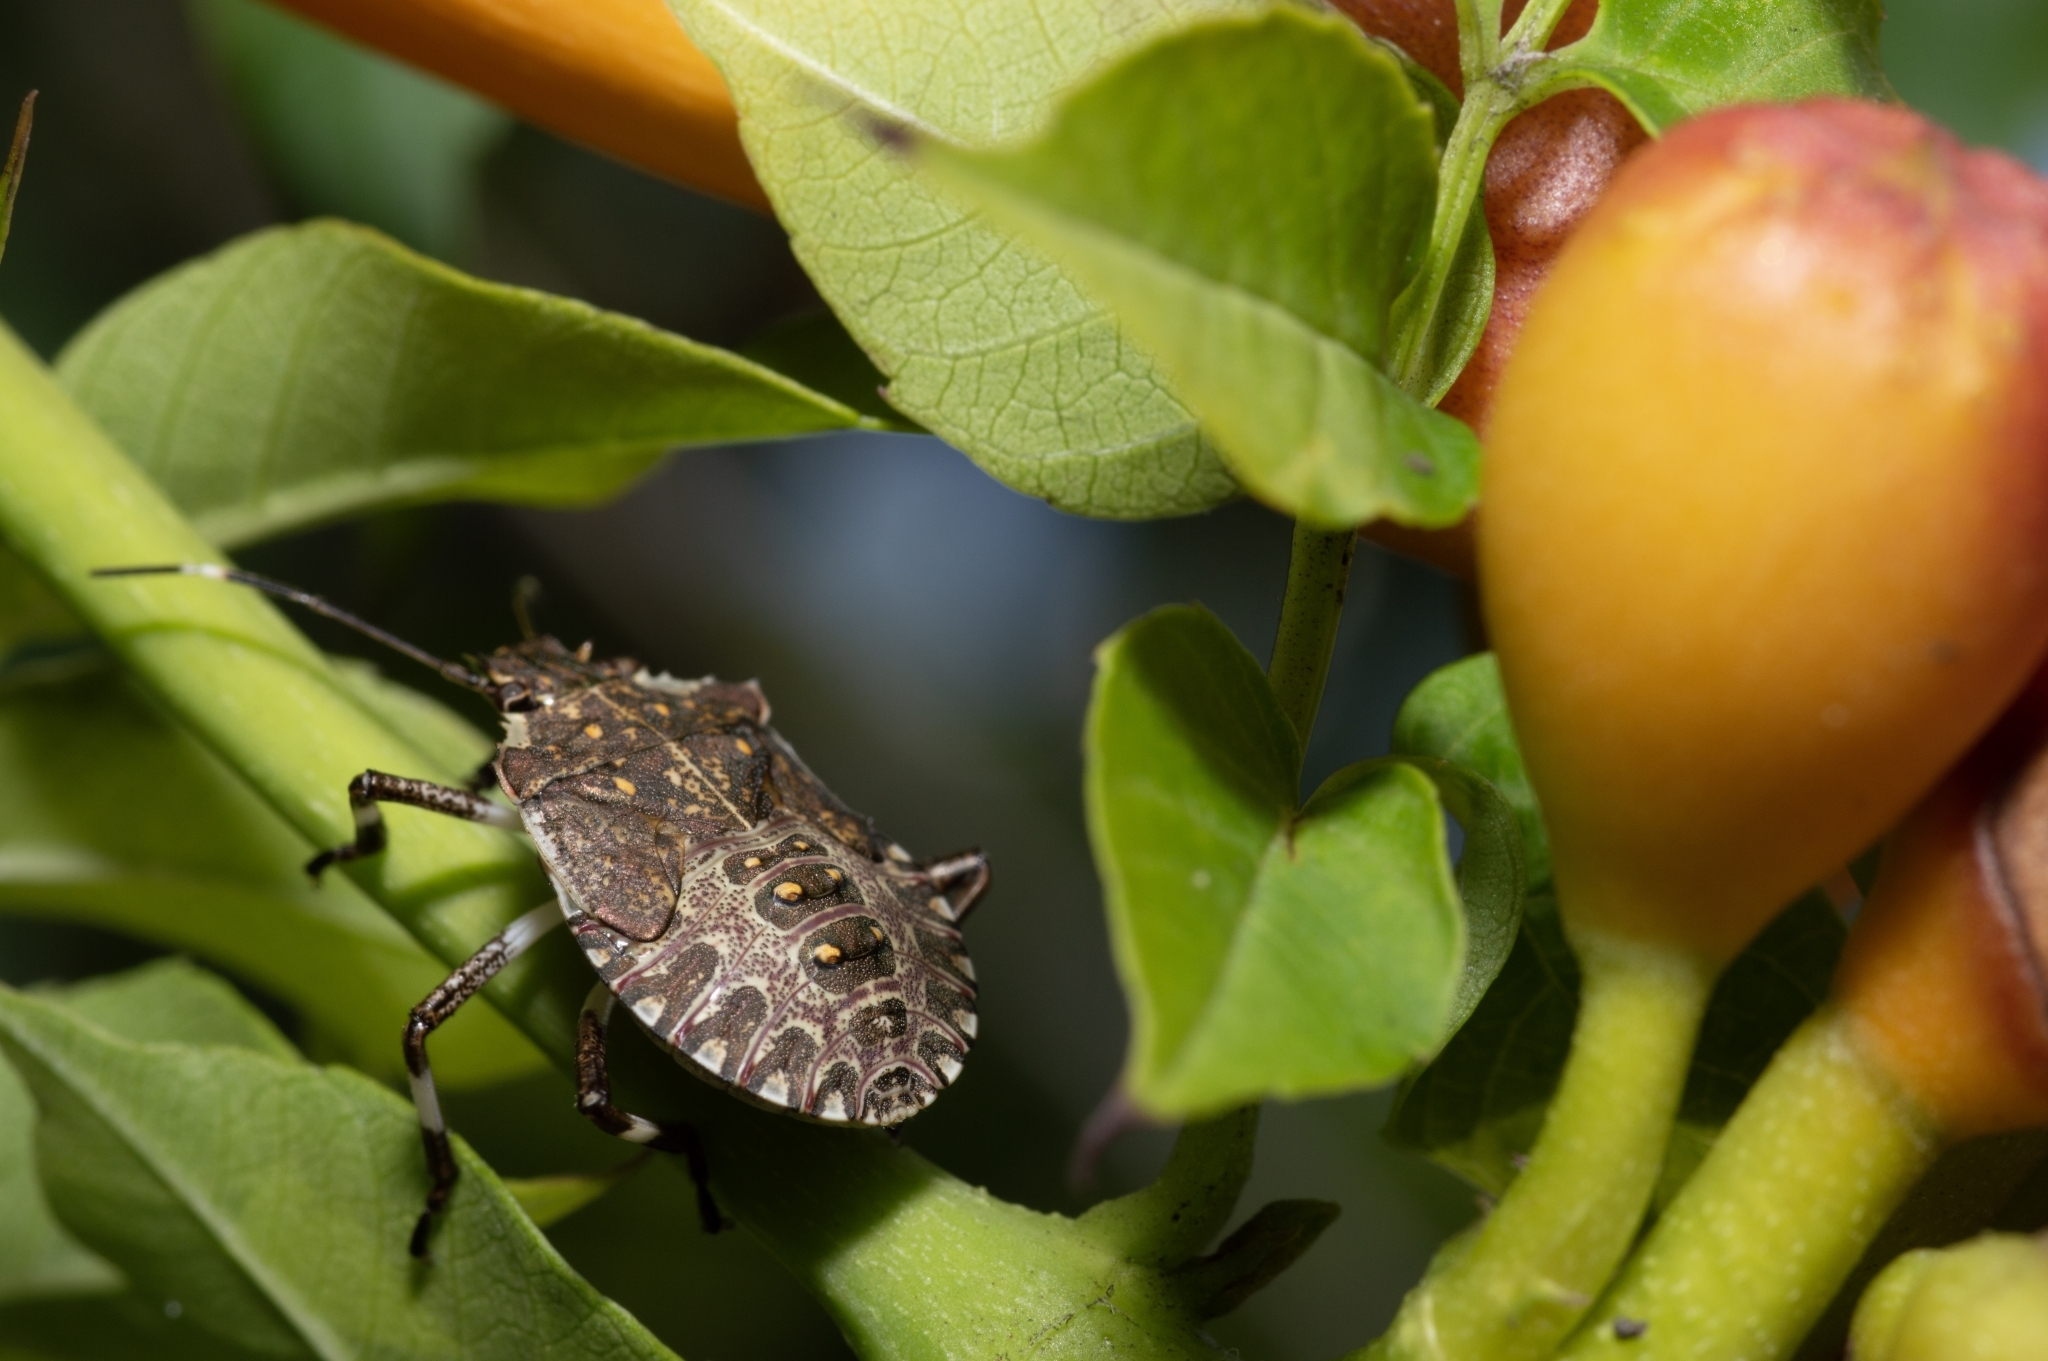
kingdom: Animalia
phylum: Arthropoda
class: Insecta
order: Hemiptera
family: Pentatomidae
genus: Halyomorpha
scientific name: Halyomorpha halys
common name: Brown marmorated stink bug
